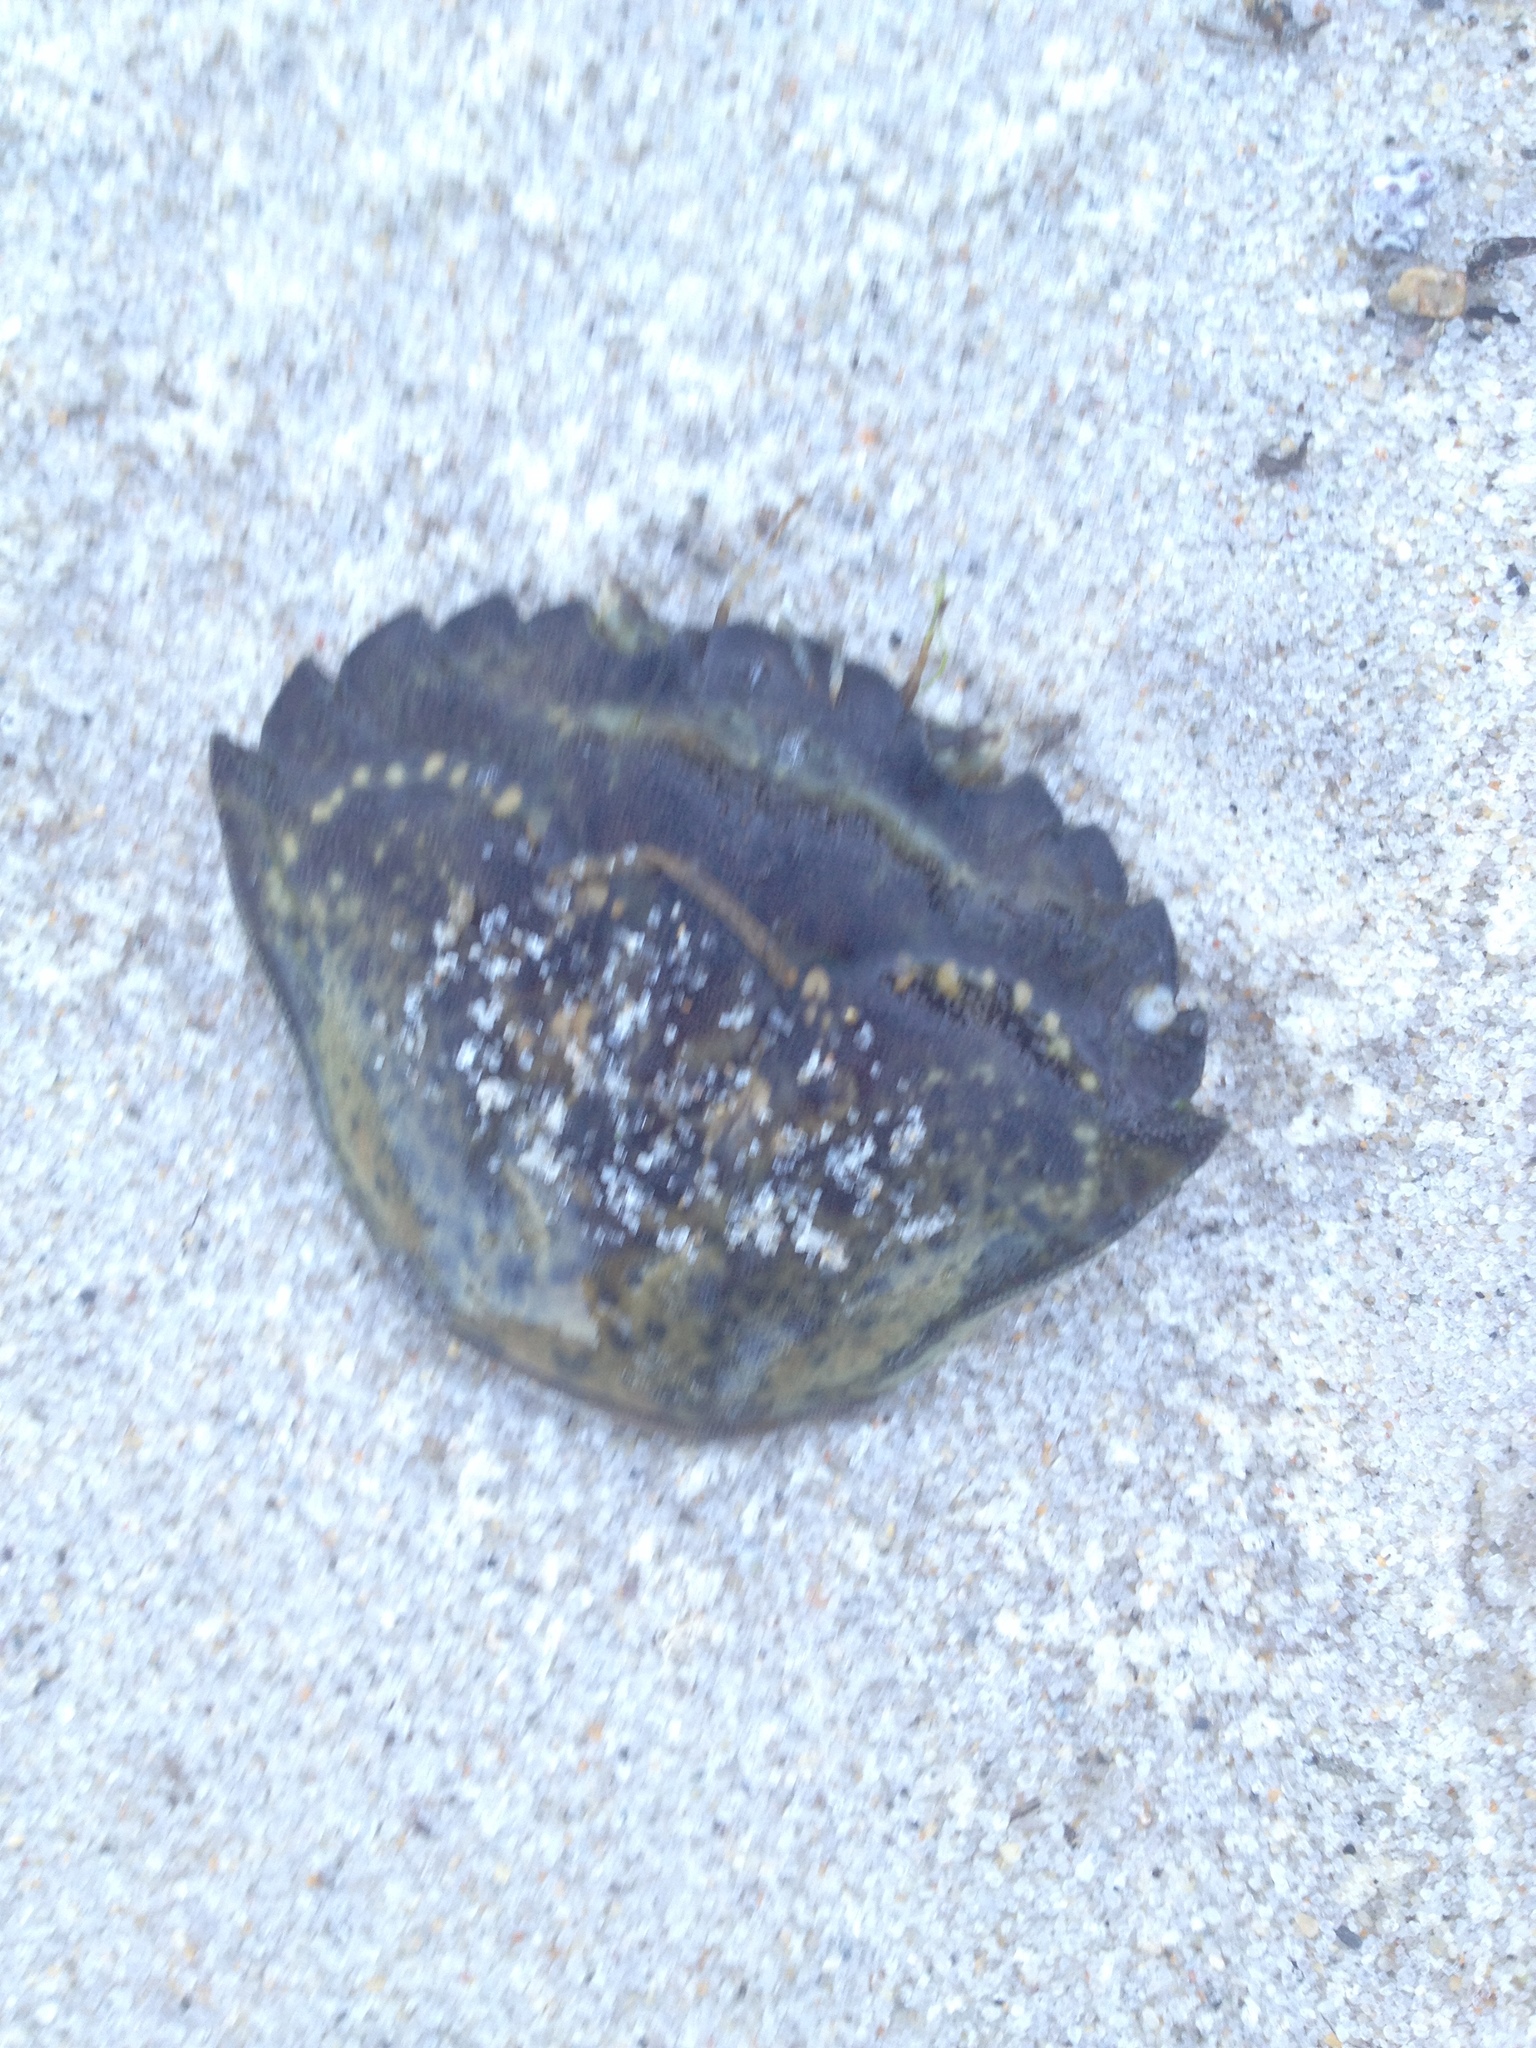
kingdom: Animalia
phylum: Arthropoda
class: Malacostraca
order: Decapoda
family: Carcinidae
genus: Carcinus
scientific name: Carcinus maenas
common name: European green crab
